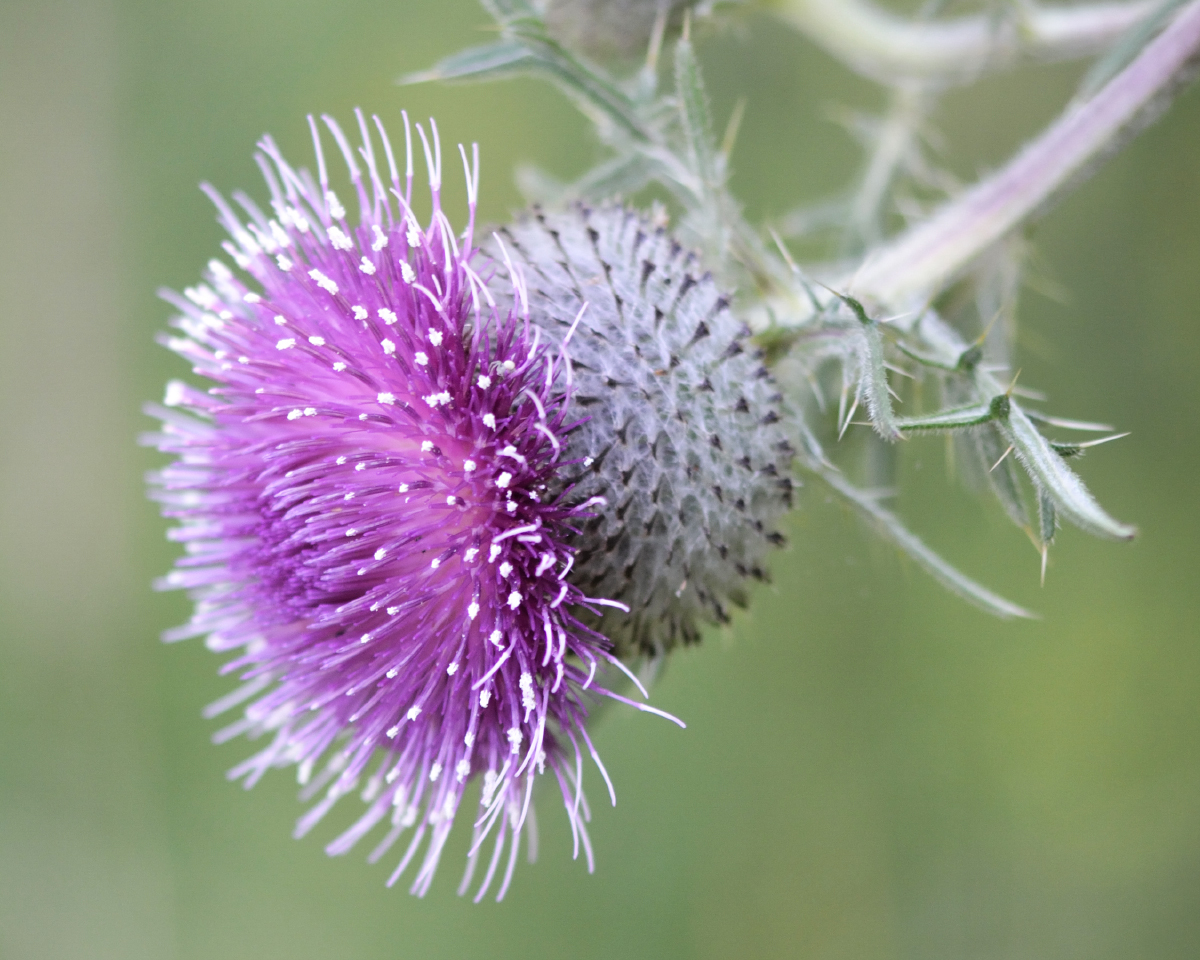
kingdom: Plantae
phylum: Tracheophyta
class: Magnoliopsida
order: Asterales
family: Asteraceae
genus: Lophiolepis
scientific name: Lophiolepis decussata
